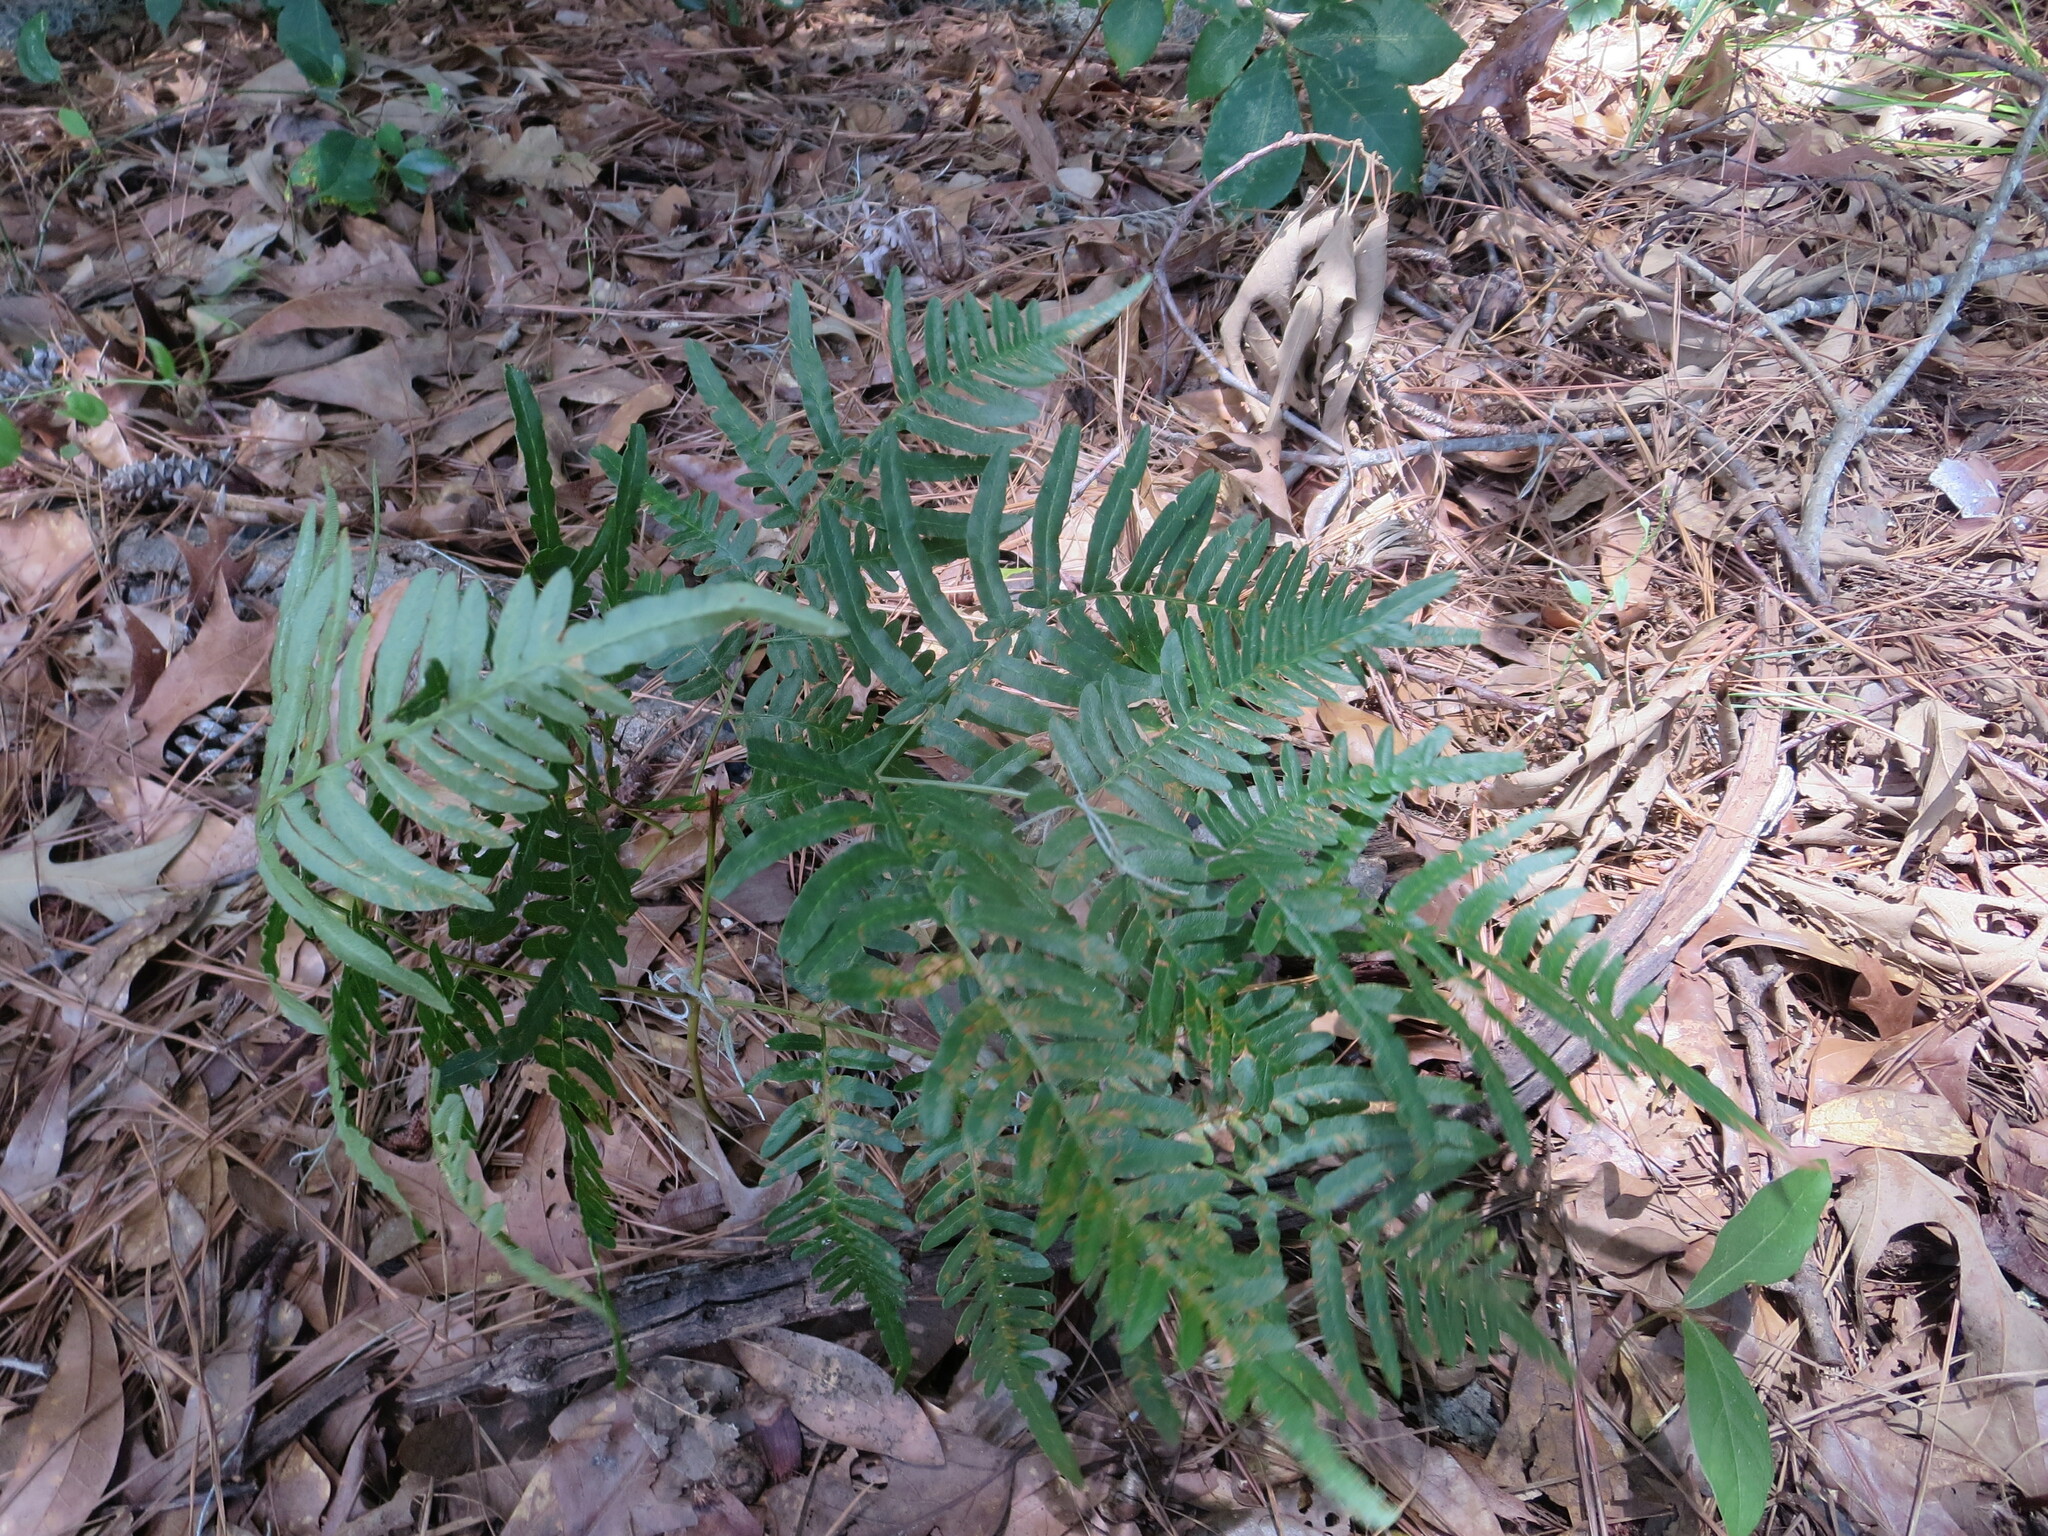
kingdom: Plantae
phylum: Tracheophyta
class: Polypodiopsida
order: Polypodiales
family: Dennstaedtiaceae
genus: Pteridium
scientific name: Pteridium
